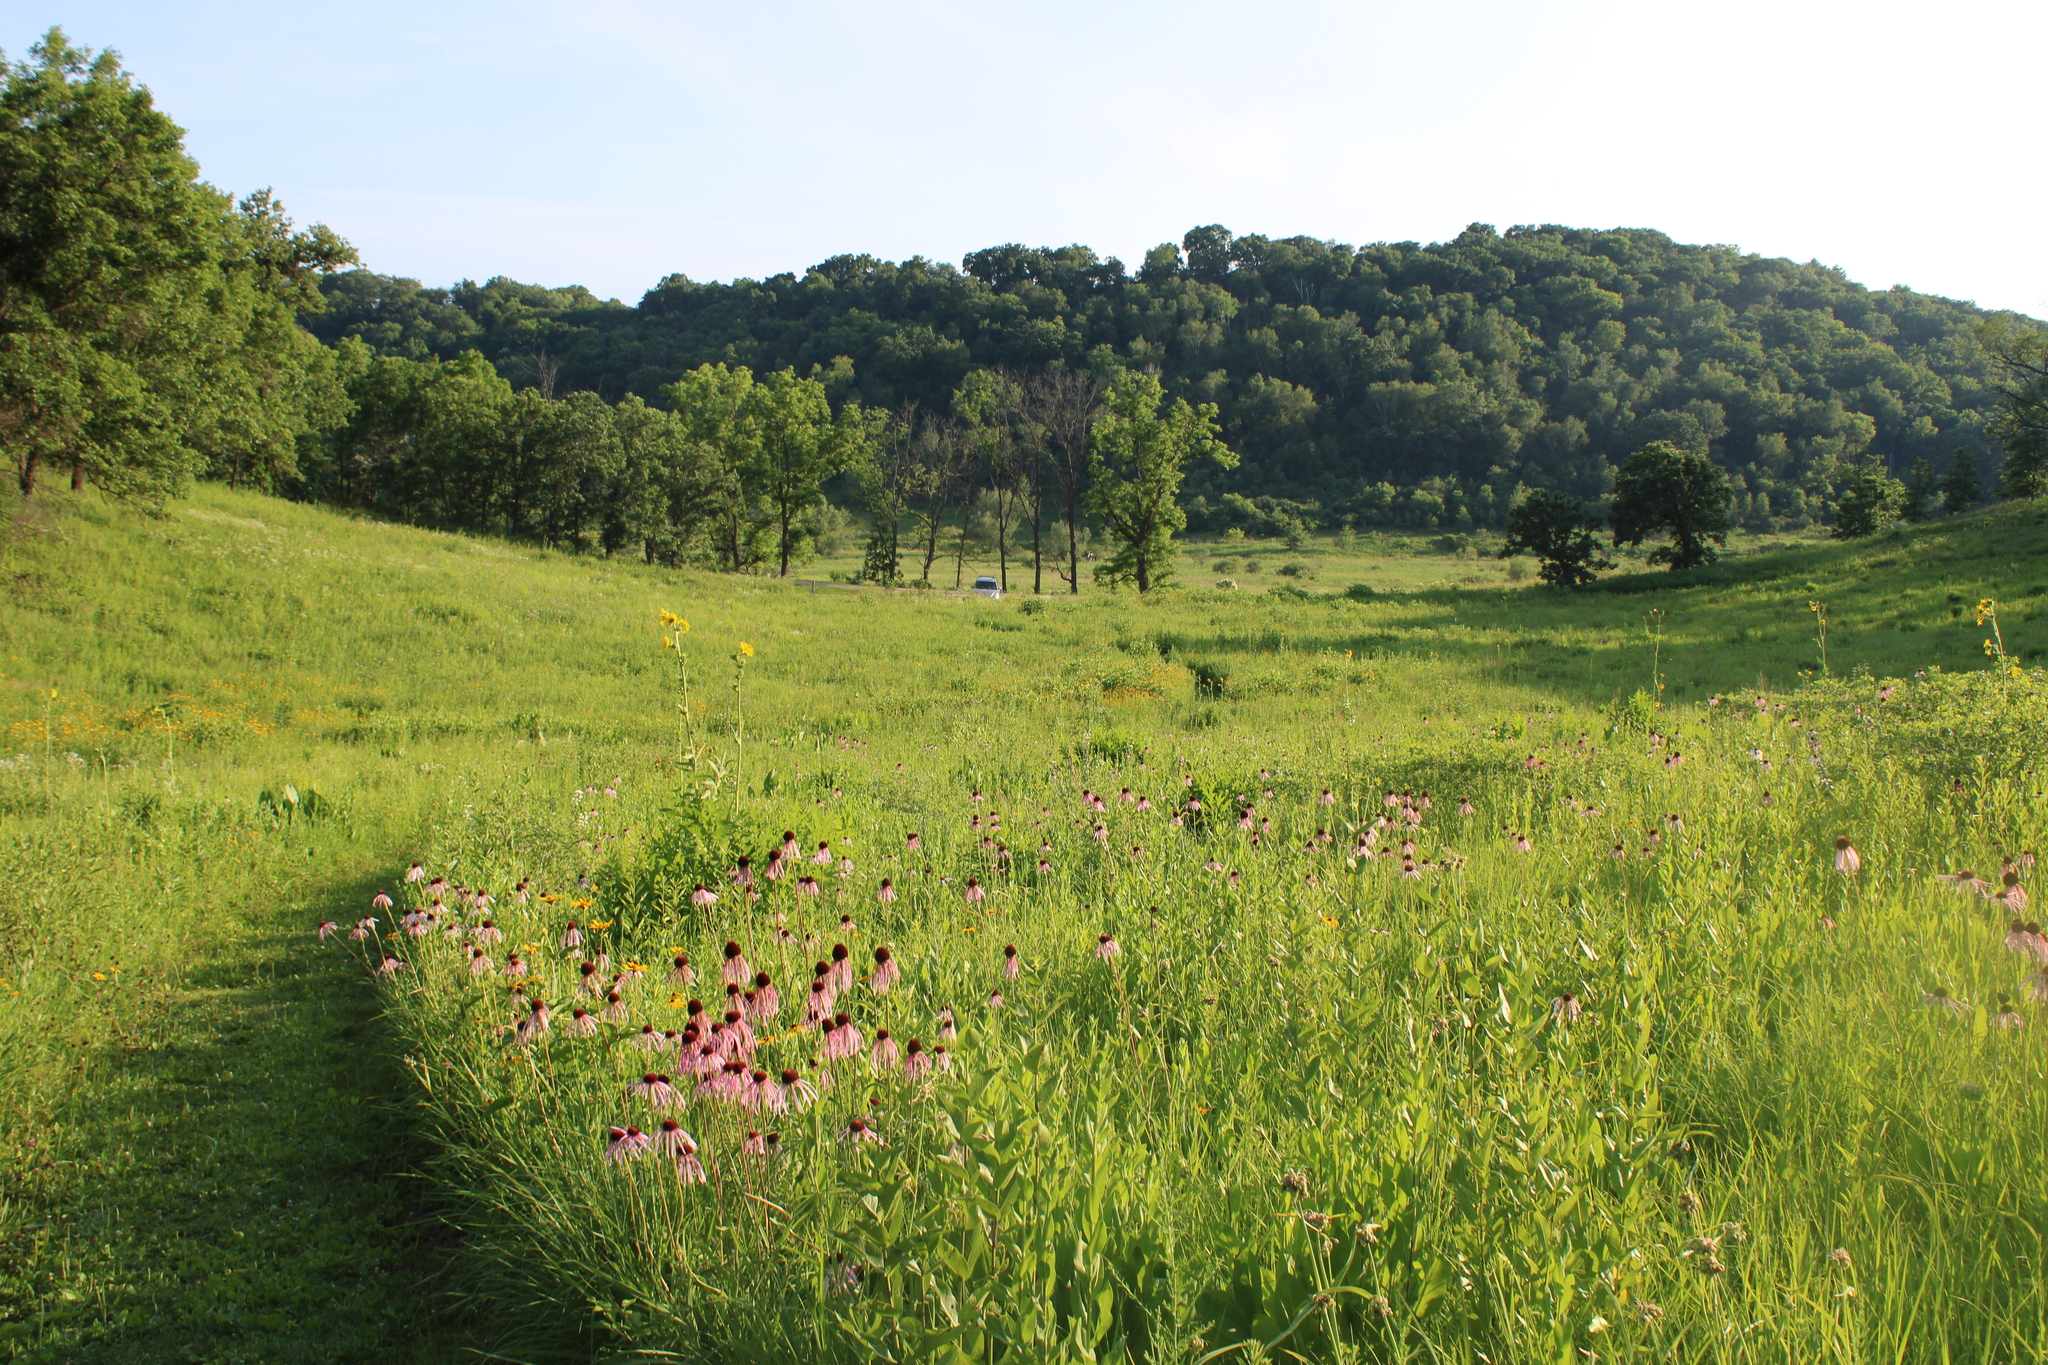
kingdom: Plantae
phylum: Tracheophyta
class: Magnoliopsida
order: Asterales
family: Asteraceae
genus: Echinacea
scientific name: Echinacea pallida
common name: Pale echinacea
